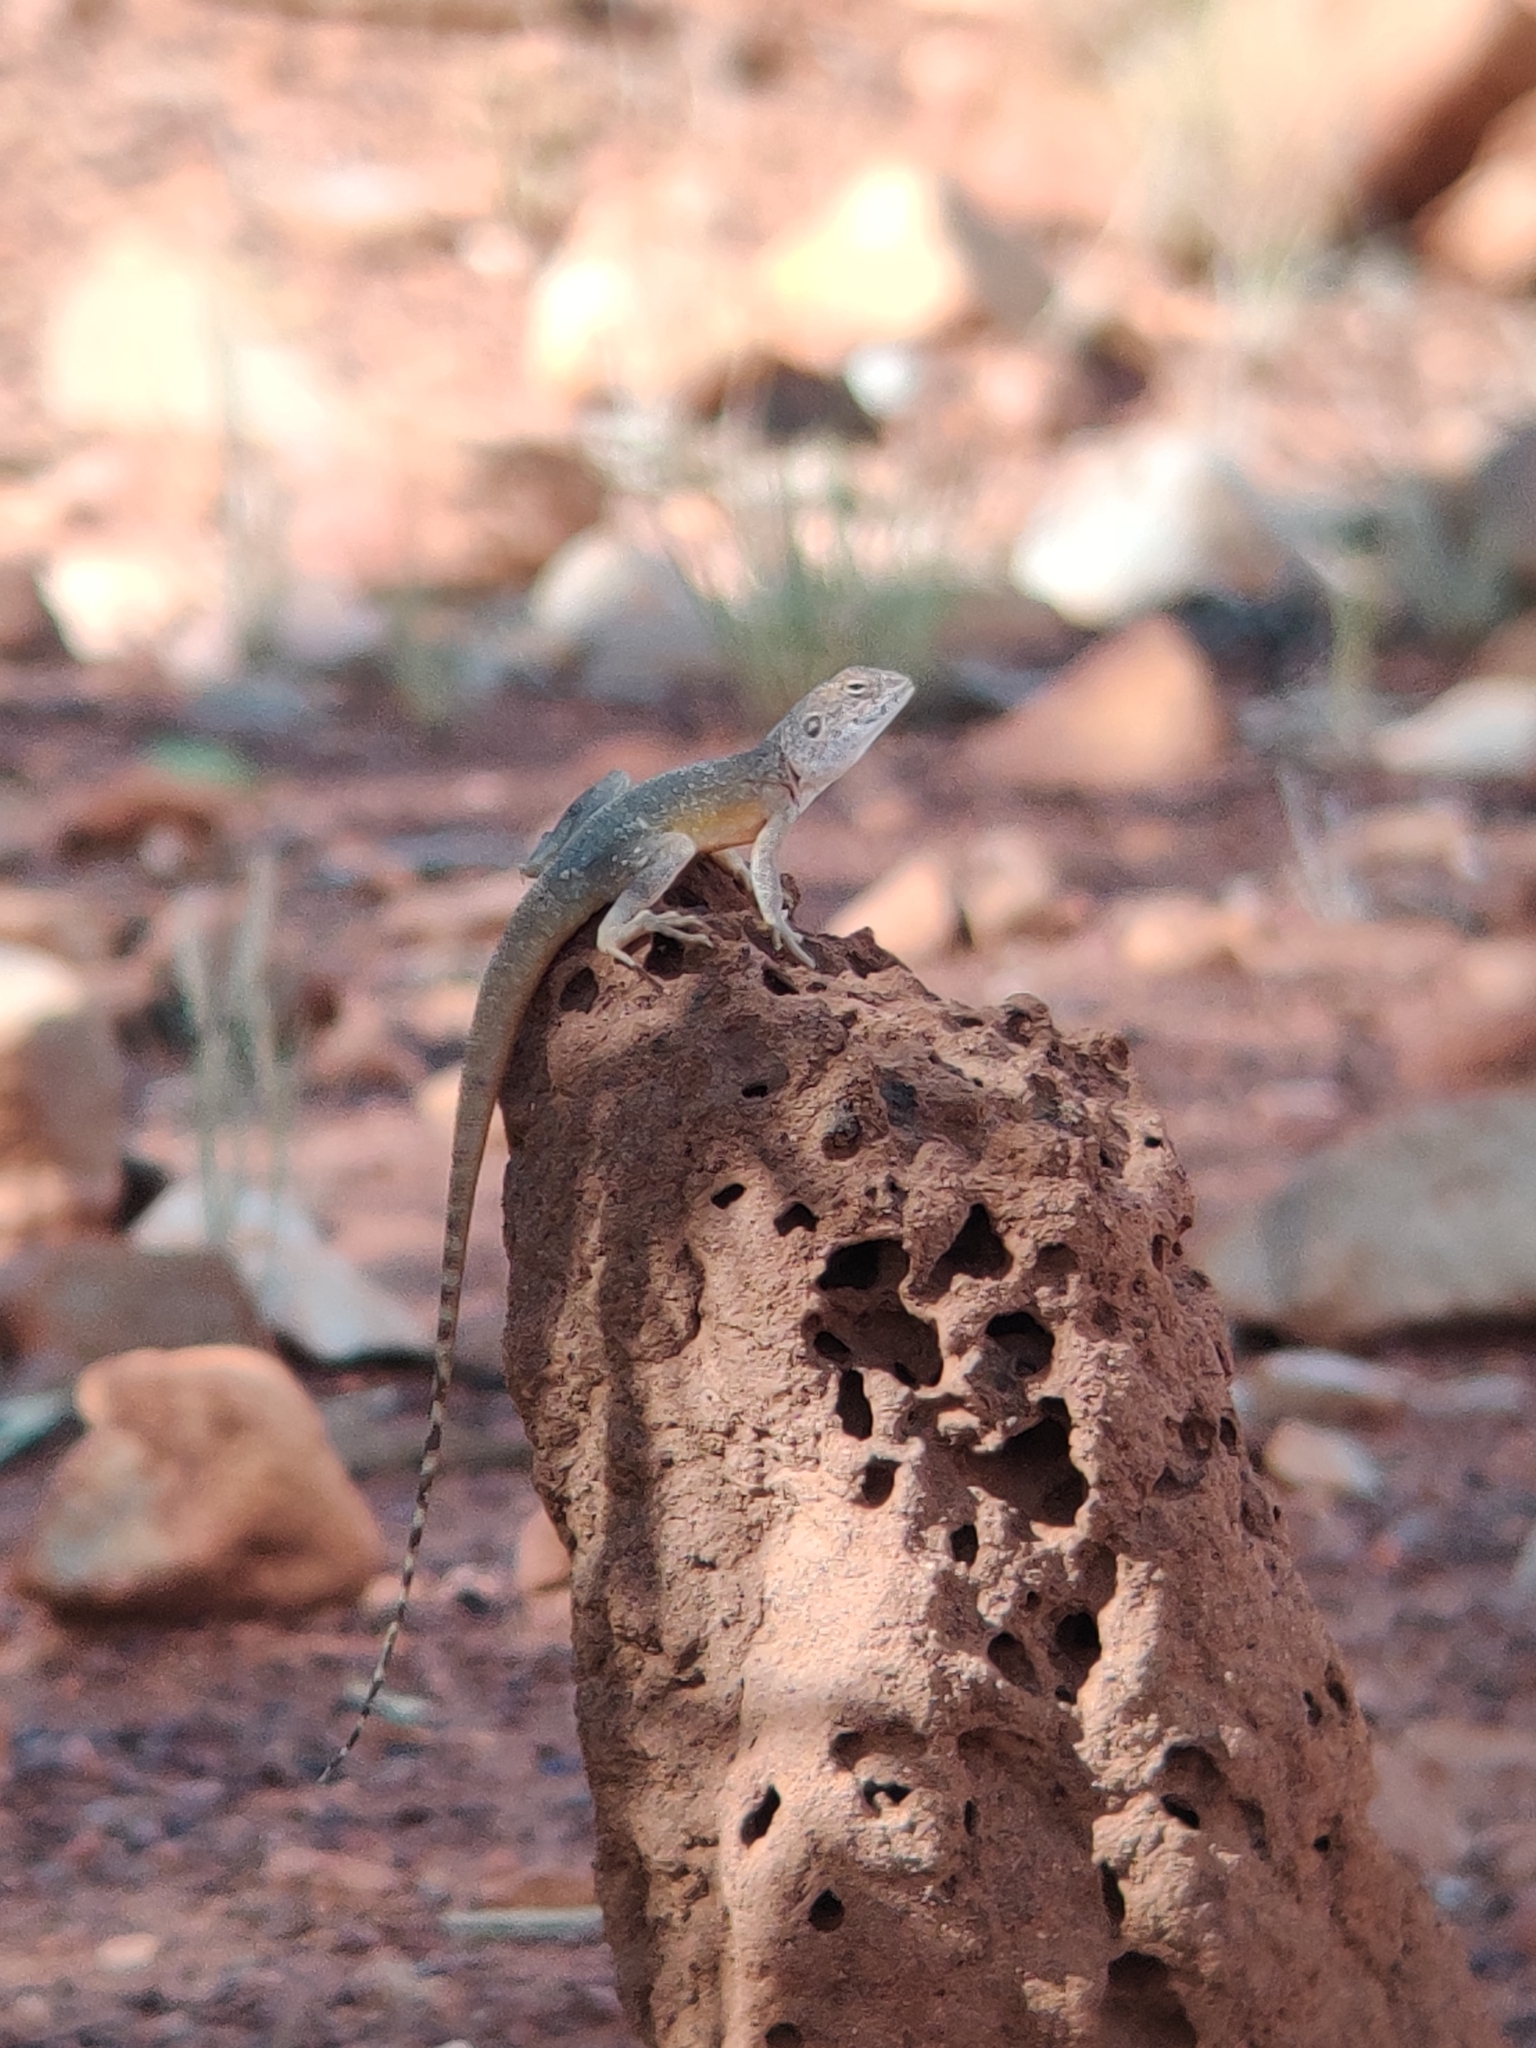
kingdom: Animalia
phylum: Chordata
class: Squamata
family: Agamidae
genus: Ctenophorus
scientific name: Ctenophorus slateri
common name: Slater’s dragon
